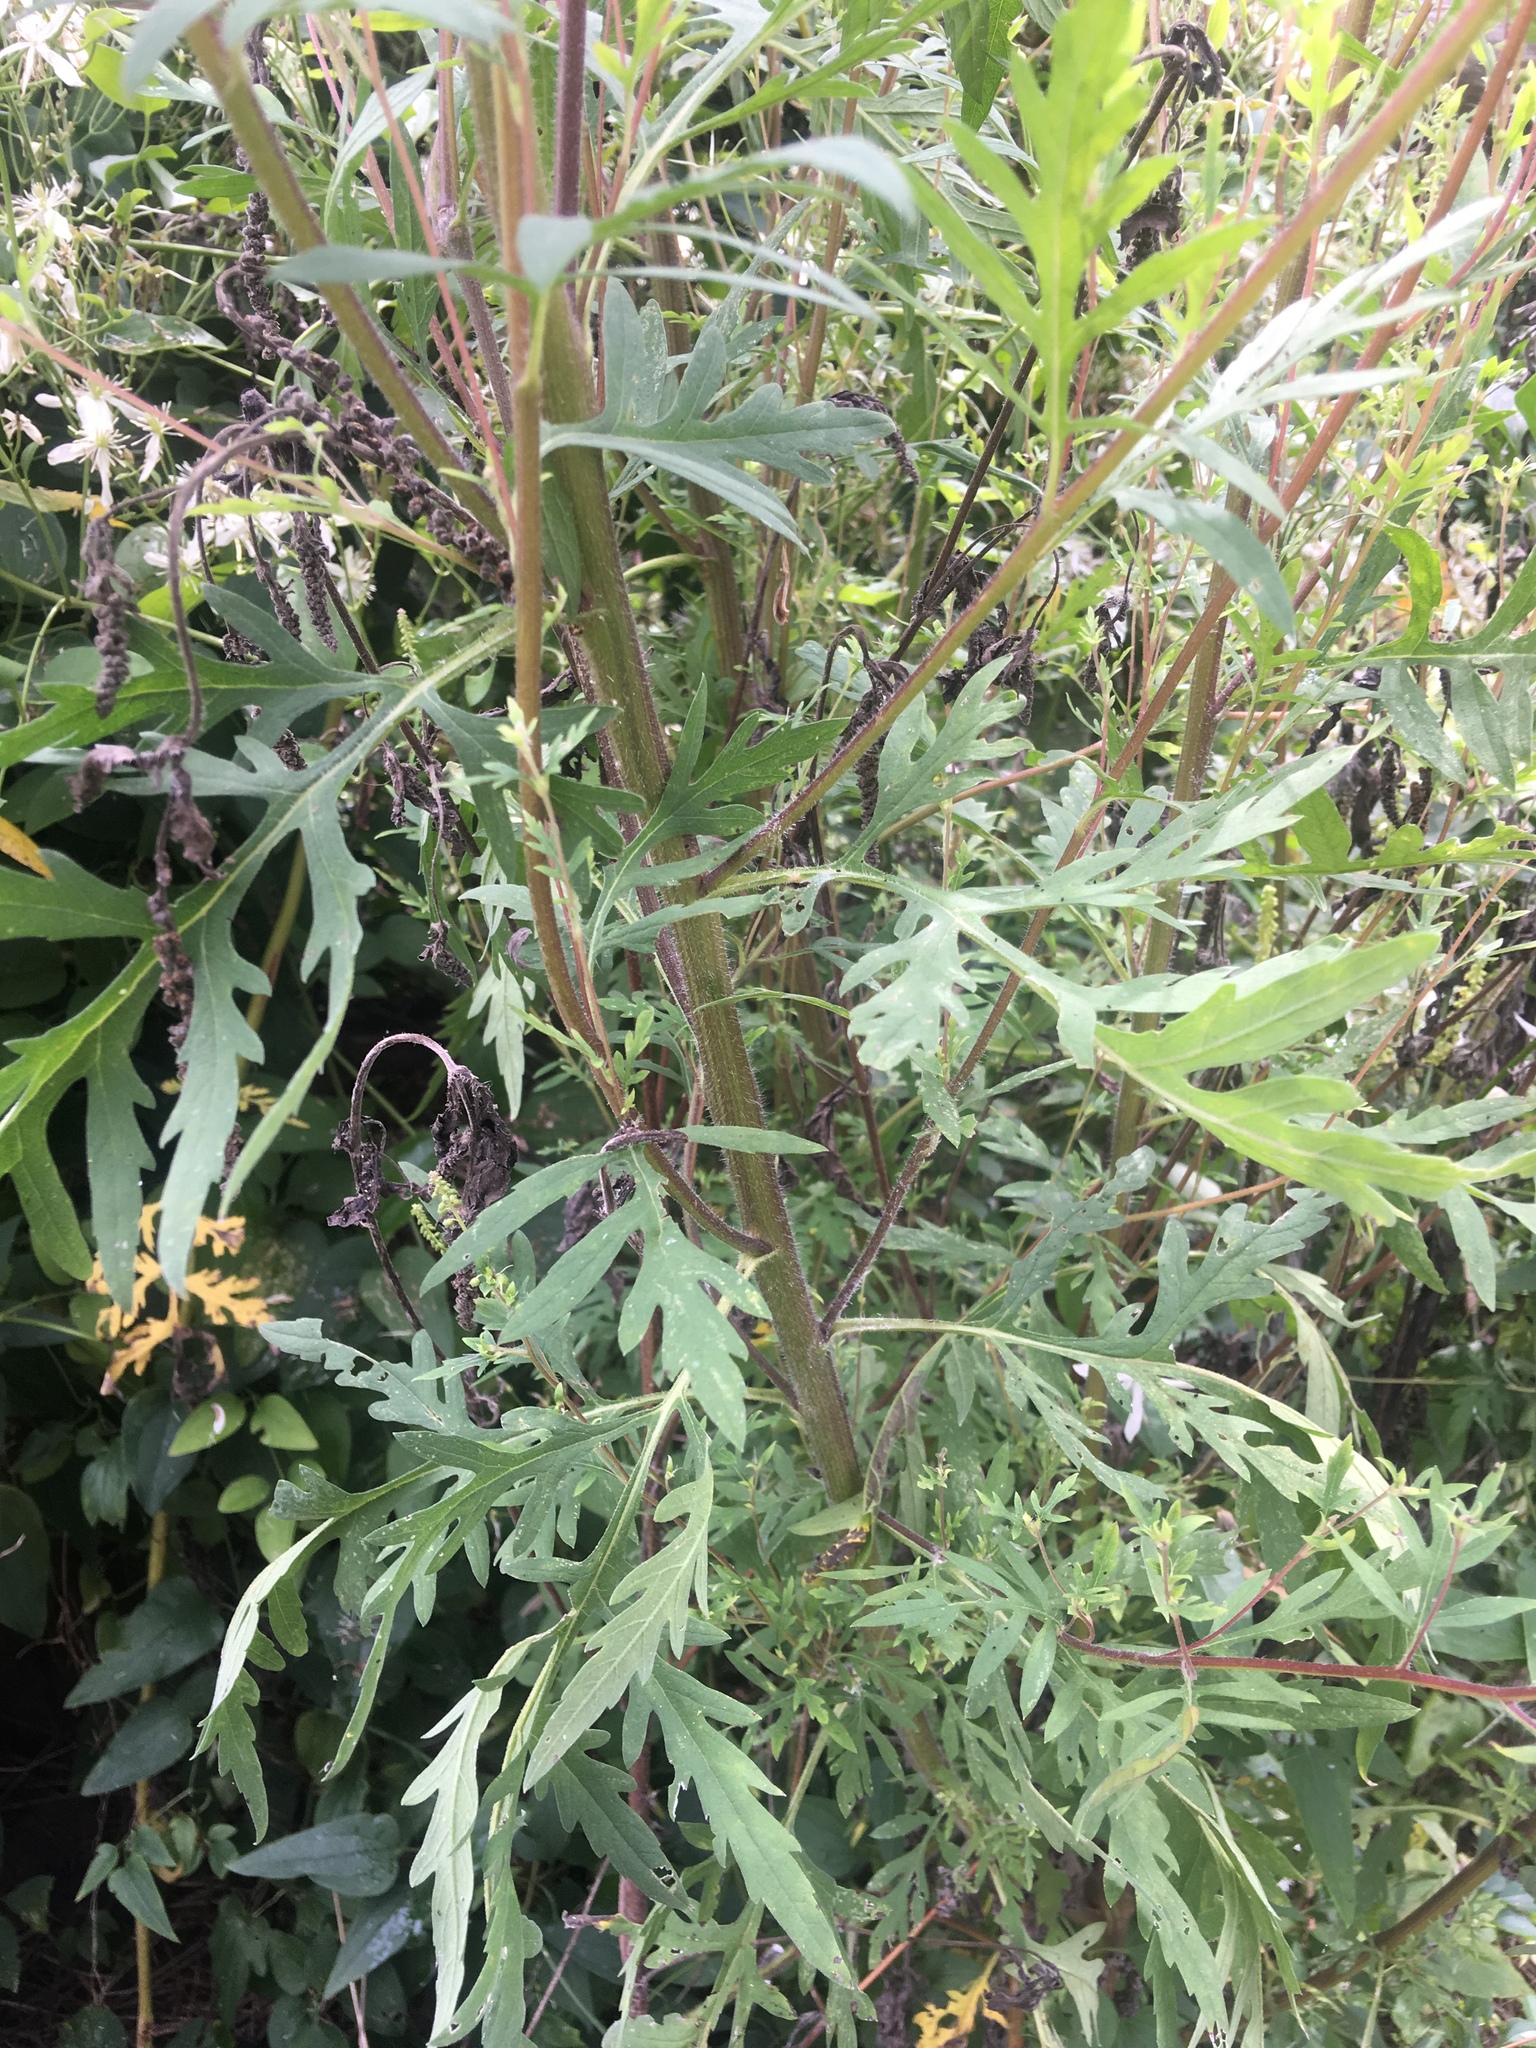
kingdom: Plantae
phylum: Tracheophyta
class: Magnoliopsida
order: Asterales
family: Asteraceae
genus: Ambrosia
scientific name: Ambrosia artemisiifolia
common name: Annual ragweed
